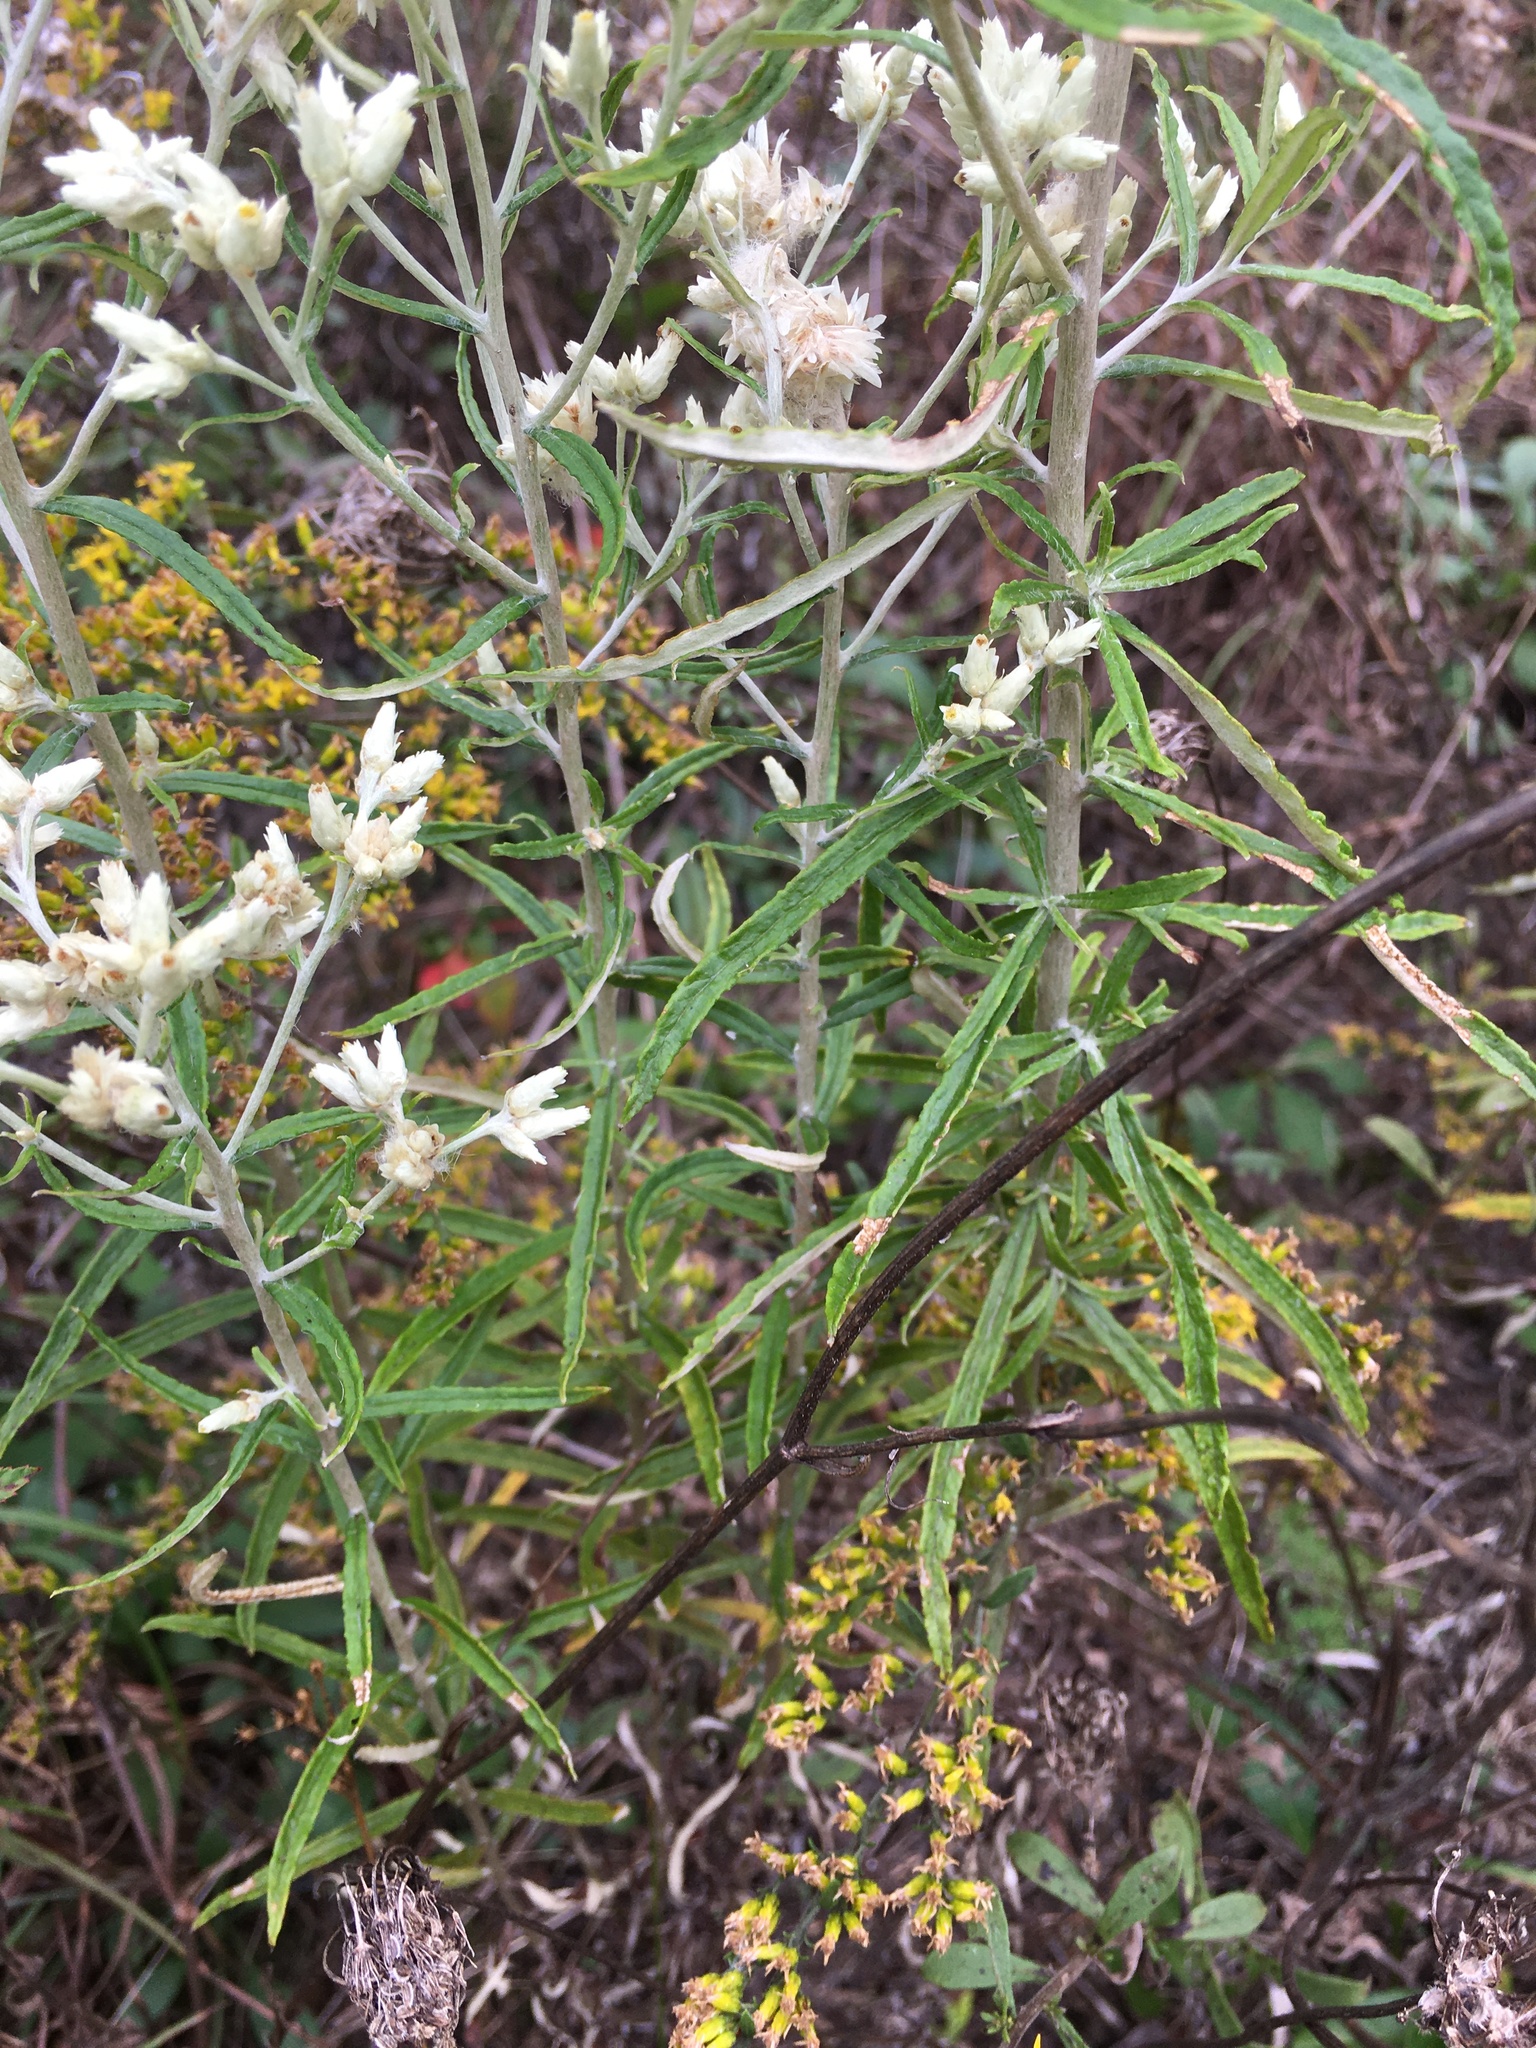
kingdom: Plantae
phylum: Tracheophyta
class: Magnoliopsida
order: Asterales
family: Asteraceae
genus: Pseudognaphalium
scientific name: Pseudognaphalium obtusifolium
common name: Eastern rabbit-tobacco
